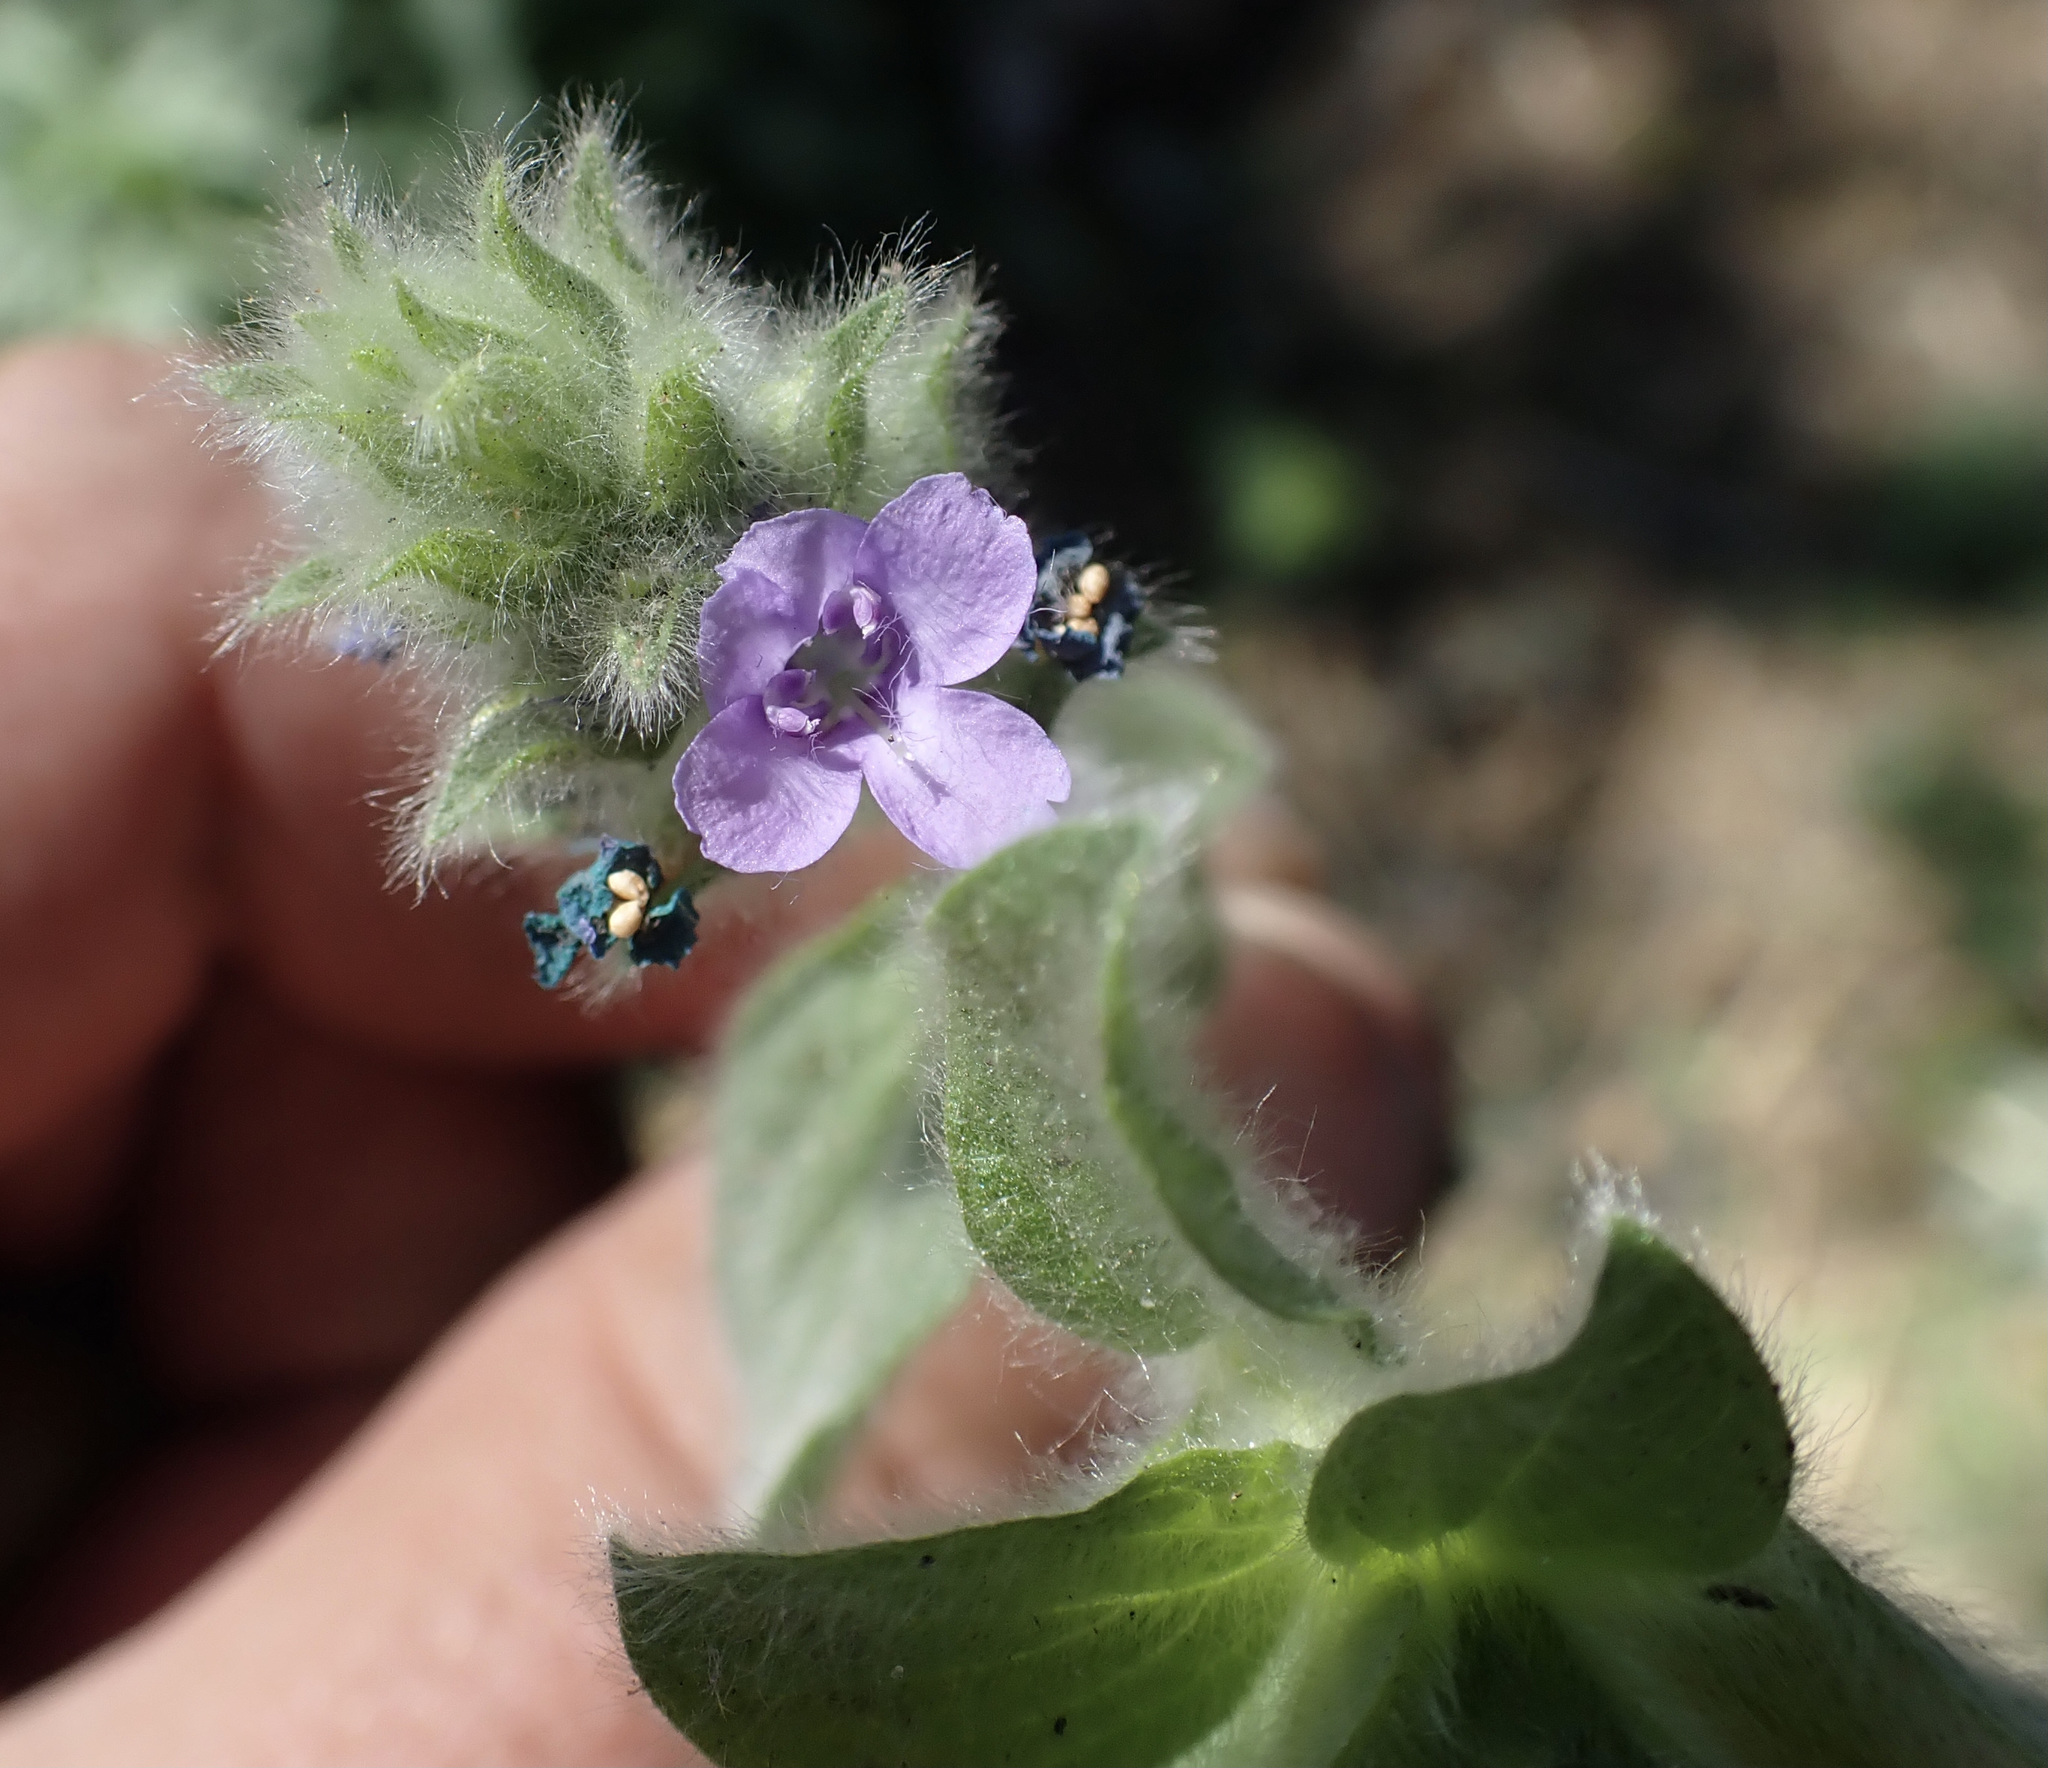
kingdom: Plantae
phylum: Tracheophyta
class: Magnoliopsida
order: Lamiales
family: Acanthaceae
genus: Nelsonia
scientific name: Nelsonia canescens
